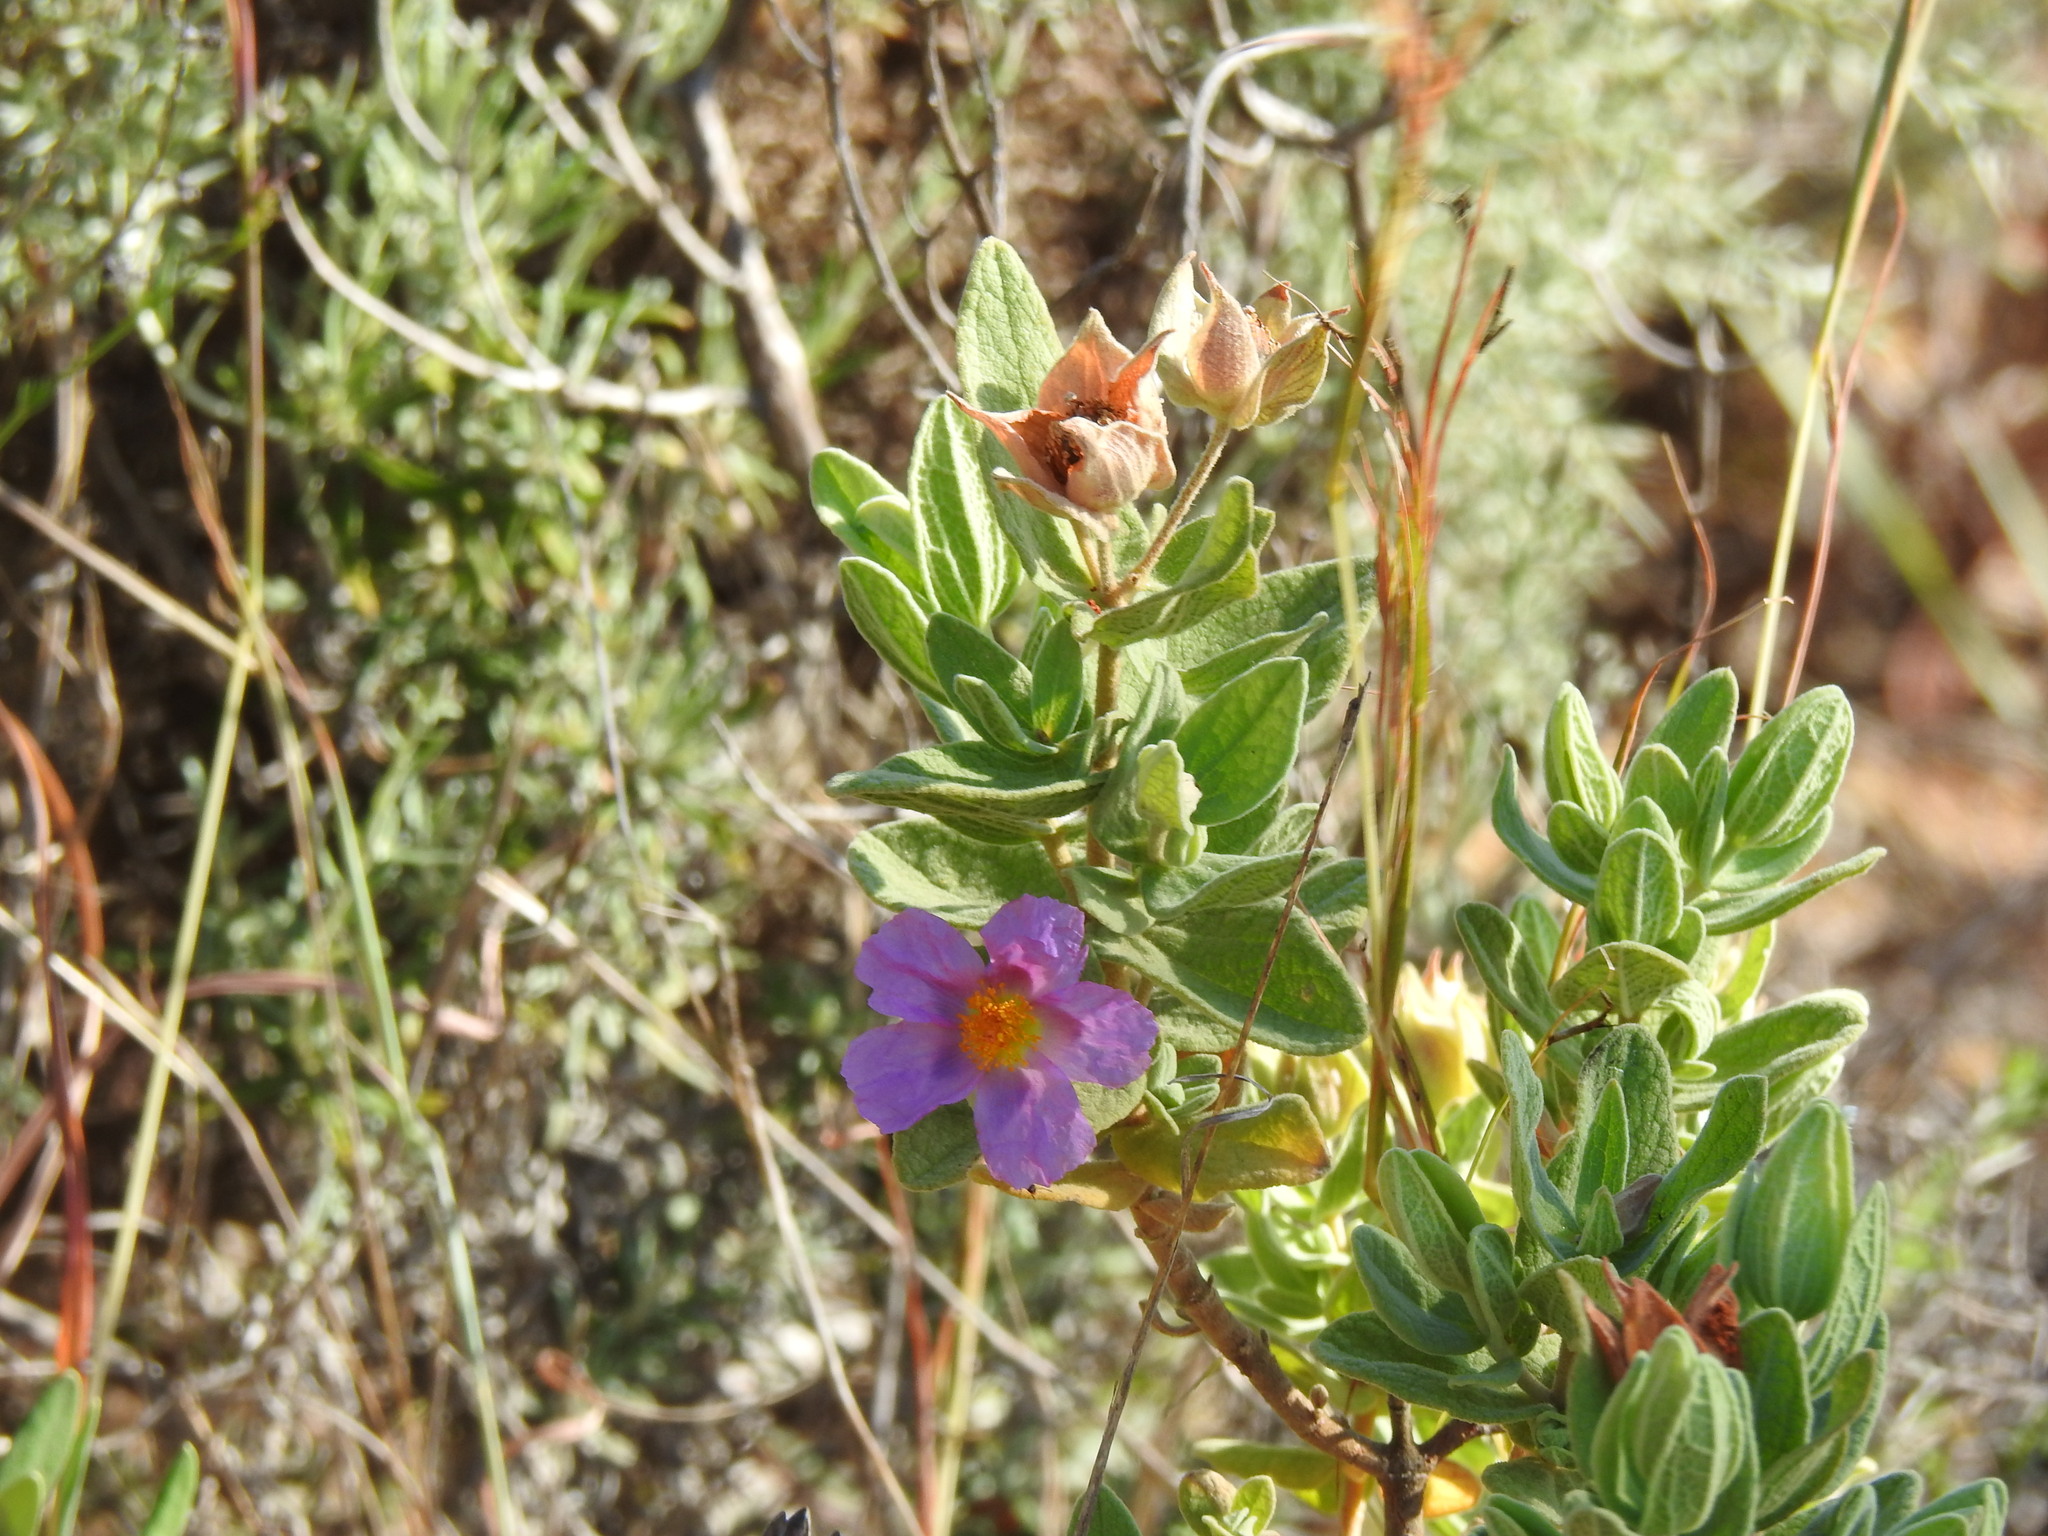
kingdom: Plantae
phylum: Tracheophyta
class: Magnoliopsida
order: Malvales
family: Cistaceae
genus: Cistus
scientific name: Cistus albidus
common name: White-leaf rock-rose
